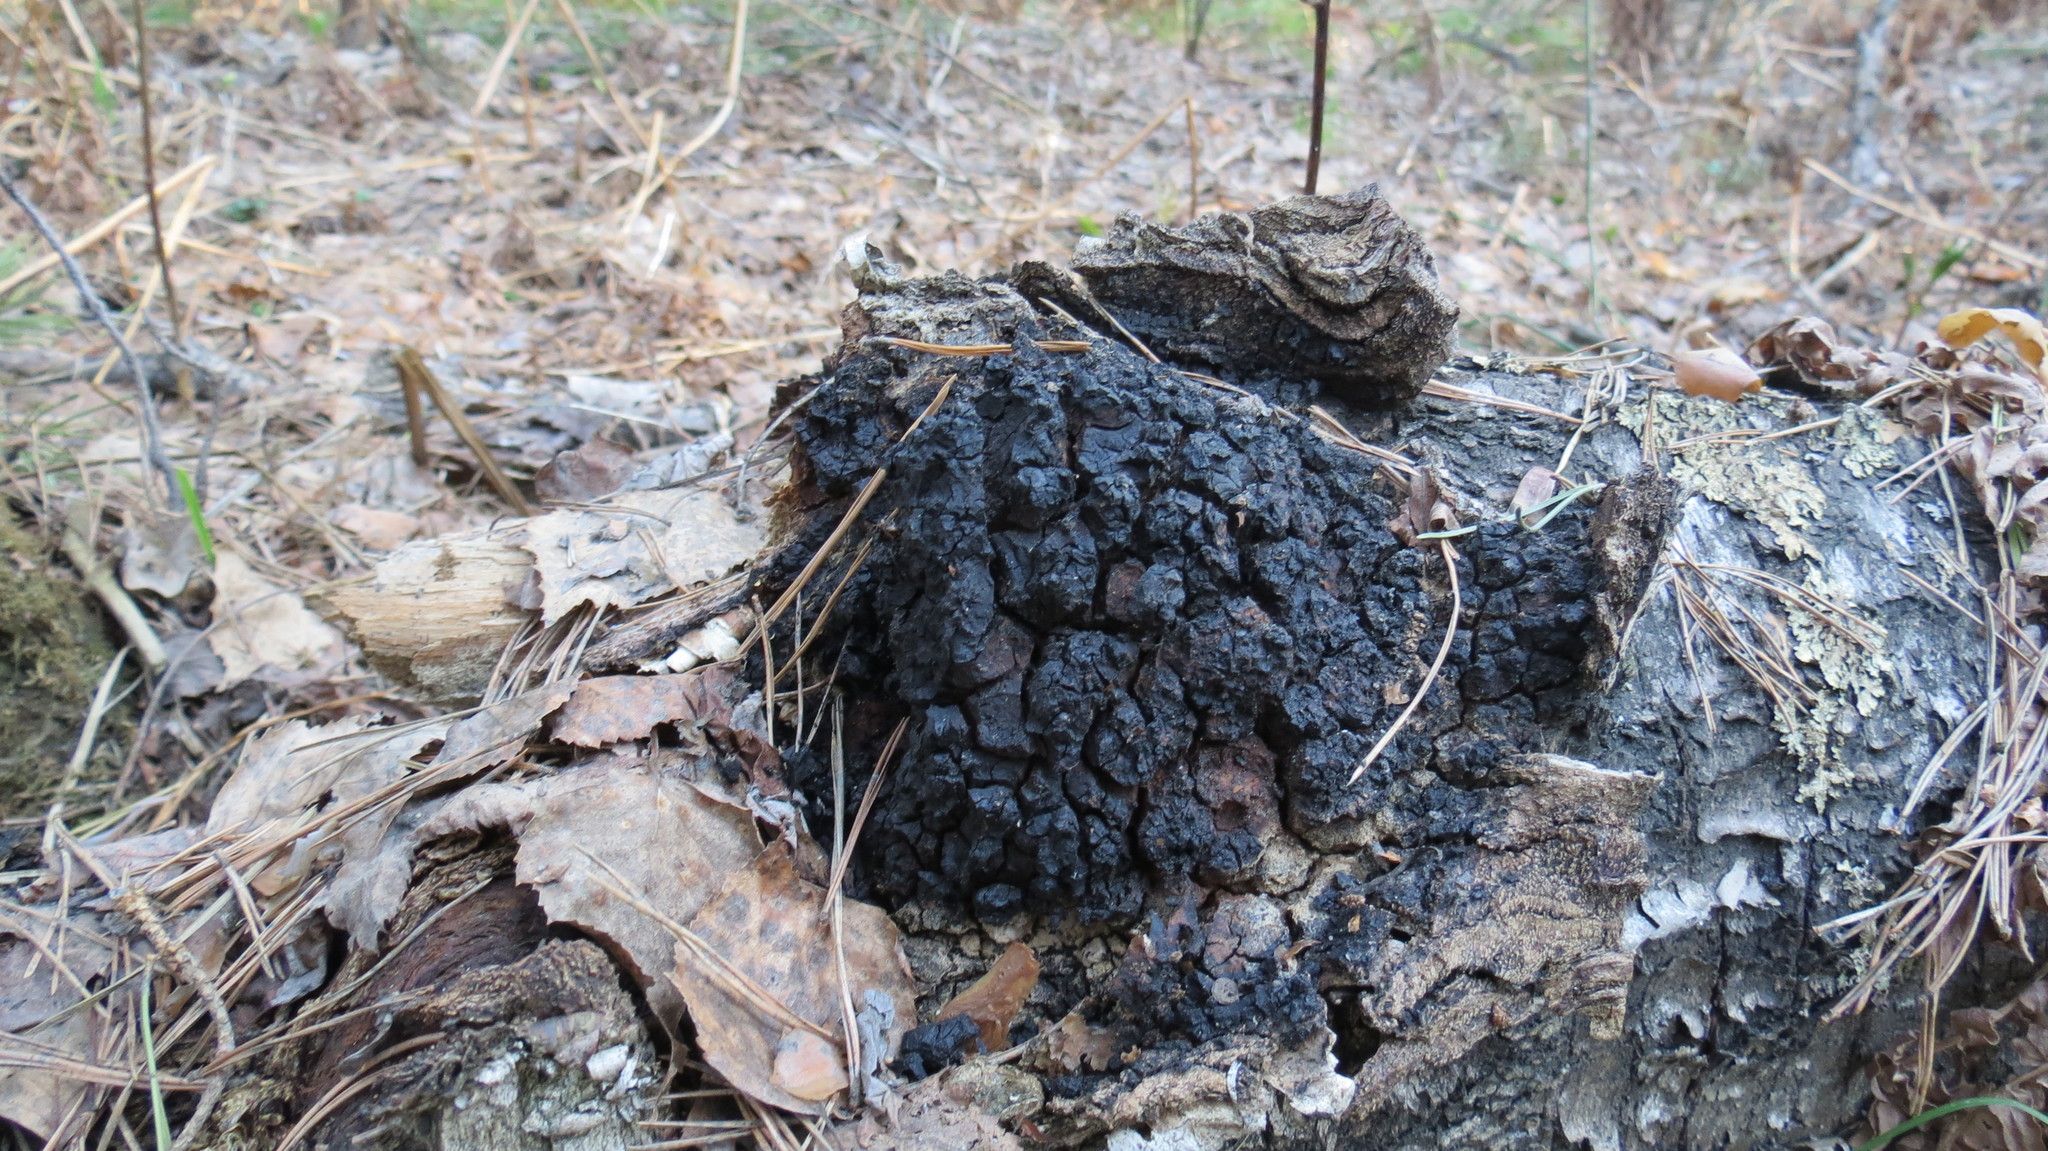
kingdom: Fungi
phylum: Basidiomycota
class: Agaricomycetes
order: Hymenochaetales
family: Hymenochaetaceae
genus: Inonotus
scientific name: Inonotus obliquus
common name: Chaga
